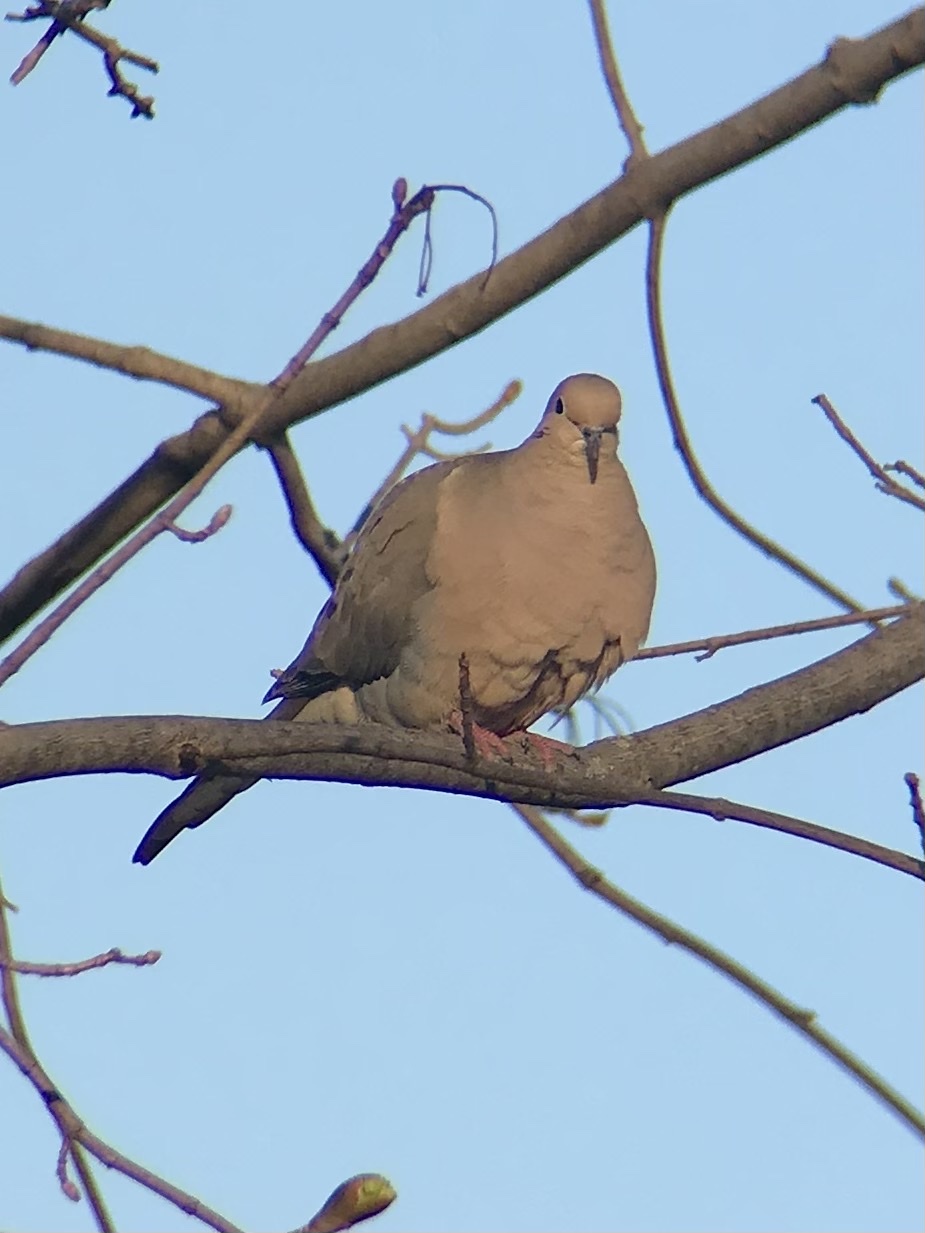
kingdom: Animalia
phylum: Chordata
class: Aves
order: Columbiformes
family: Columbidae
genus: Zenaida
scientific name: Zenaida macroura
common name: Mourning dove
